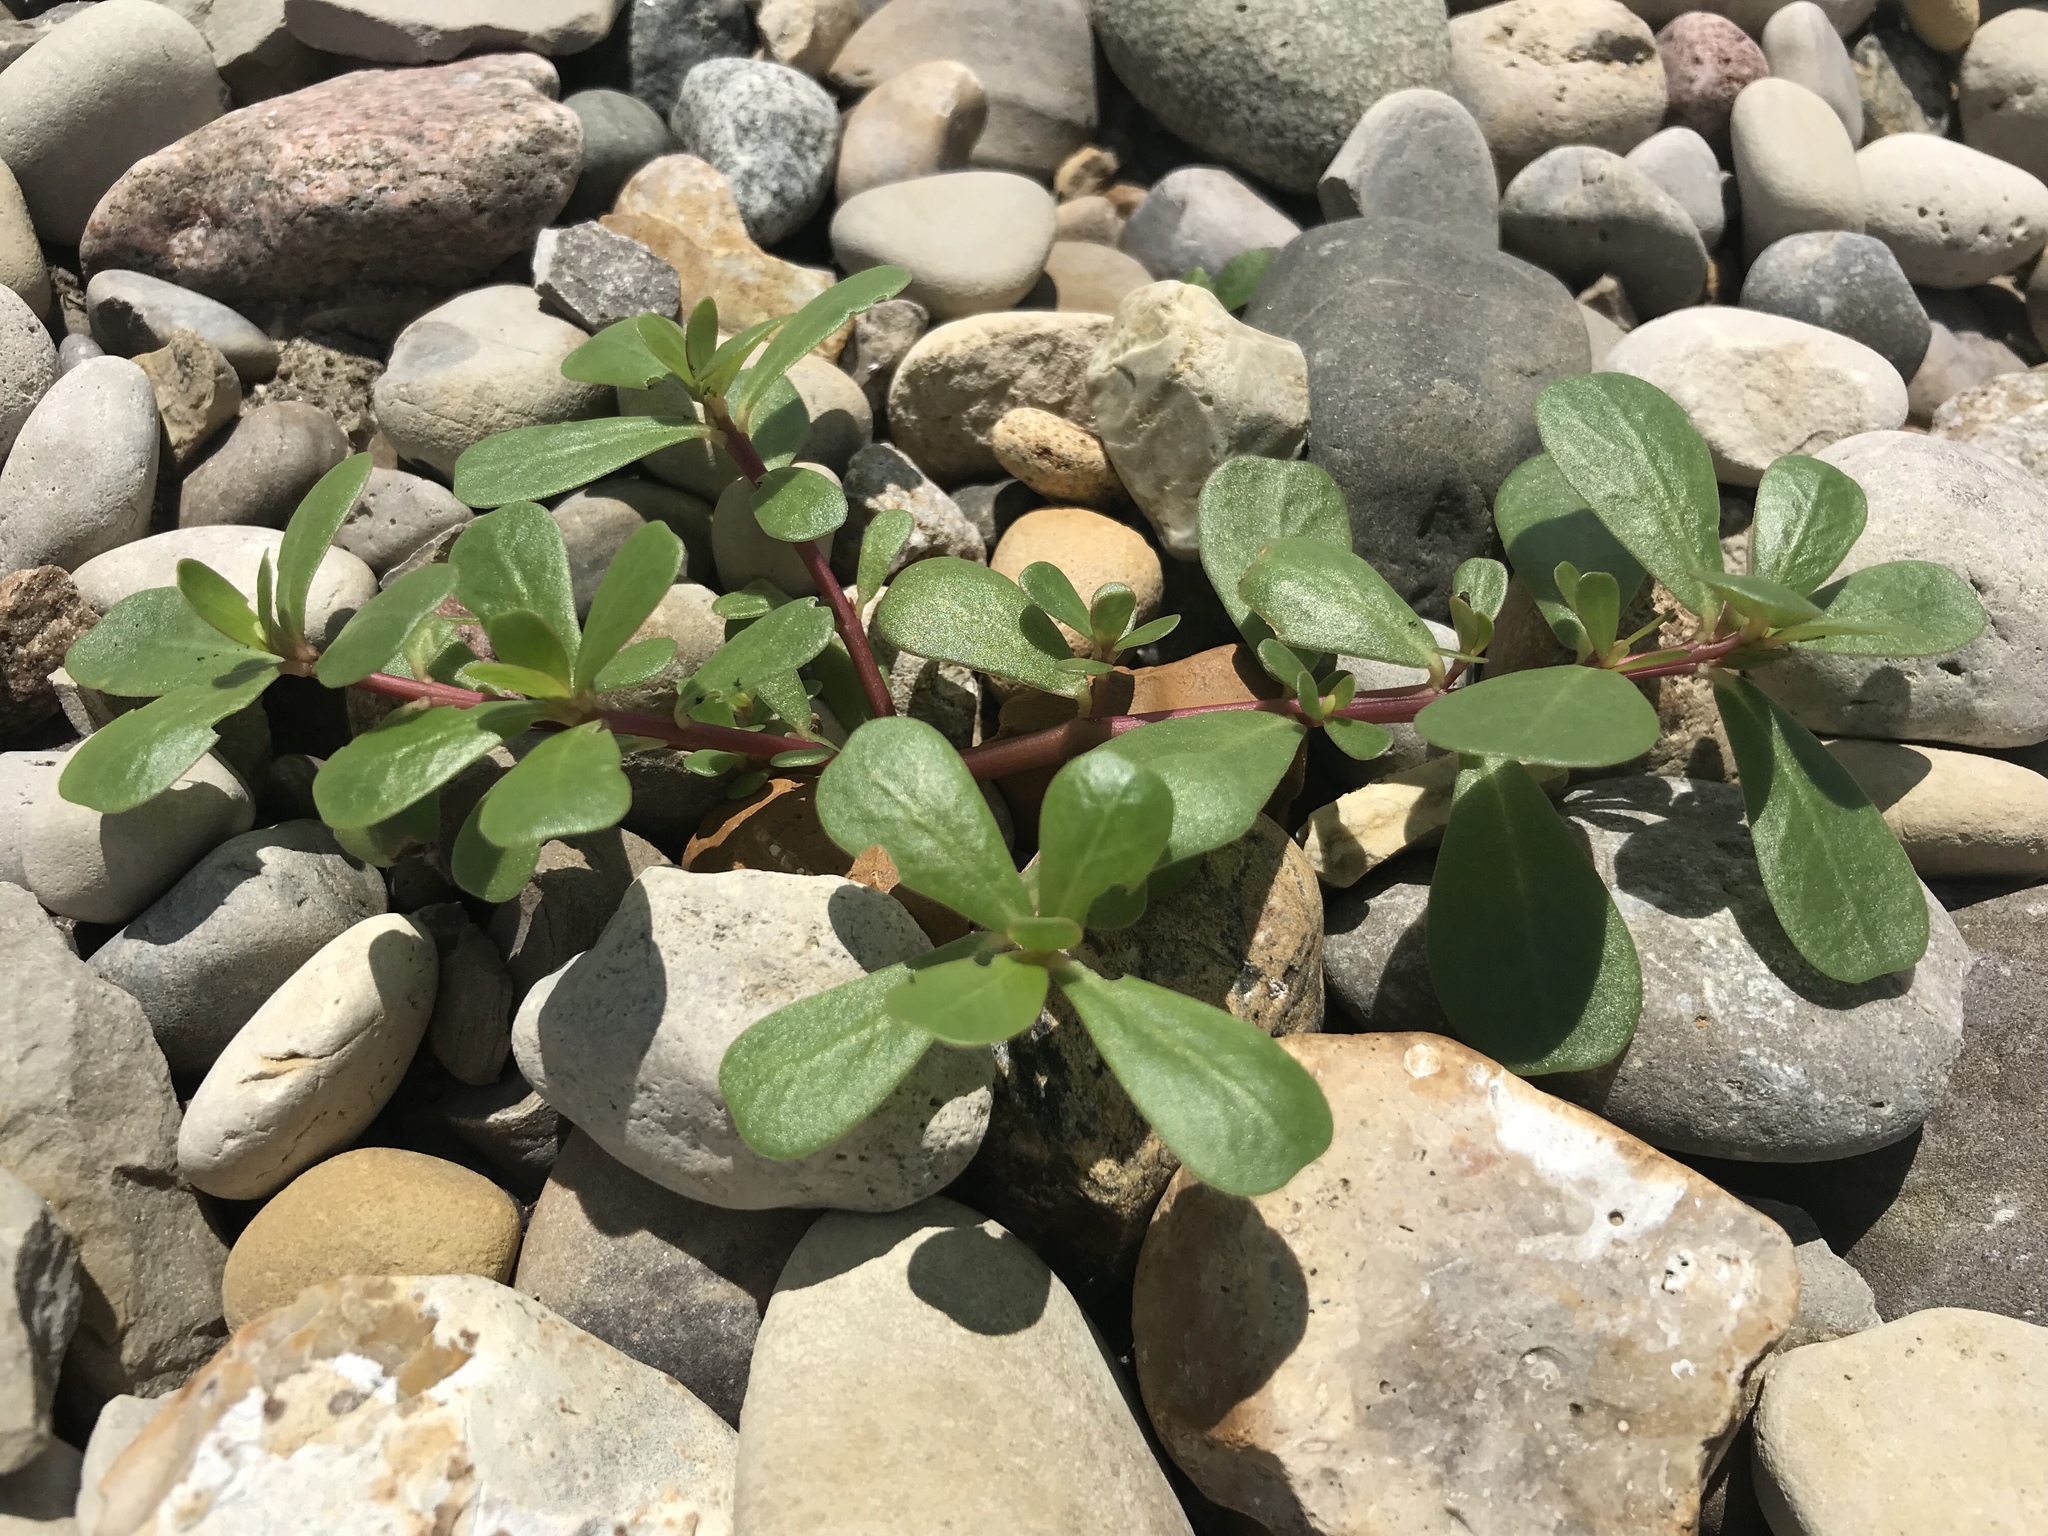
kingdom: Plantae
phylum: Tracheophyta
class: Magnoliopsida
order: Caryophyllales
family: Portulacaceae
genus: Portulaca
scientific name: Portulaca oleracea
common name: Common purslane
